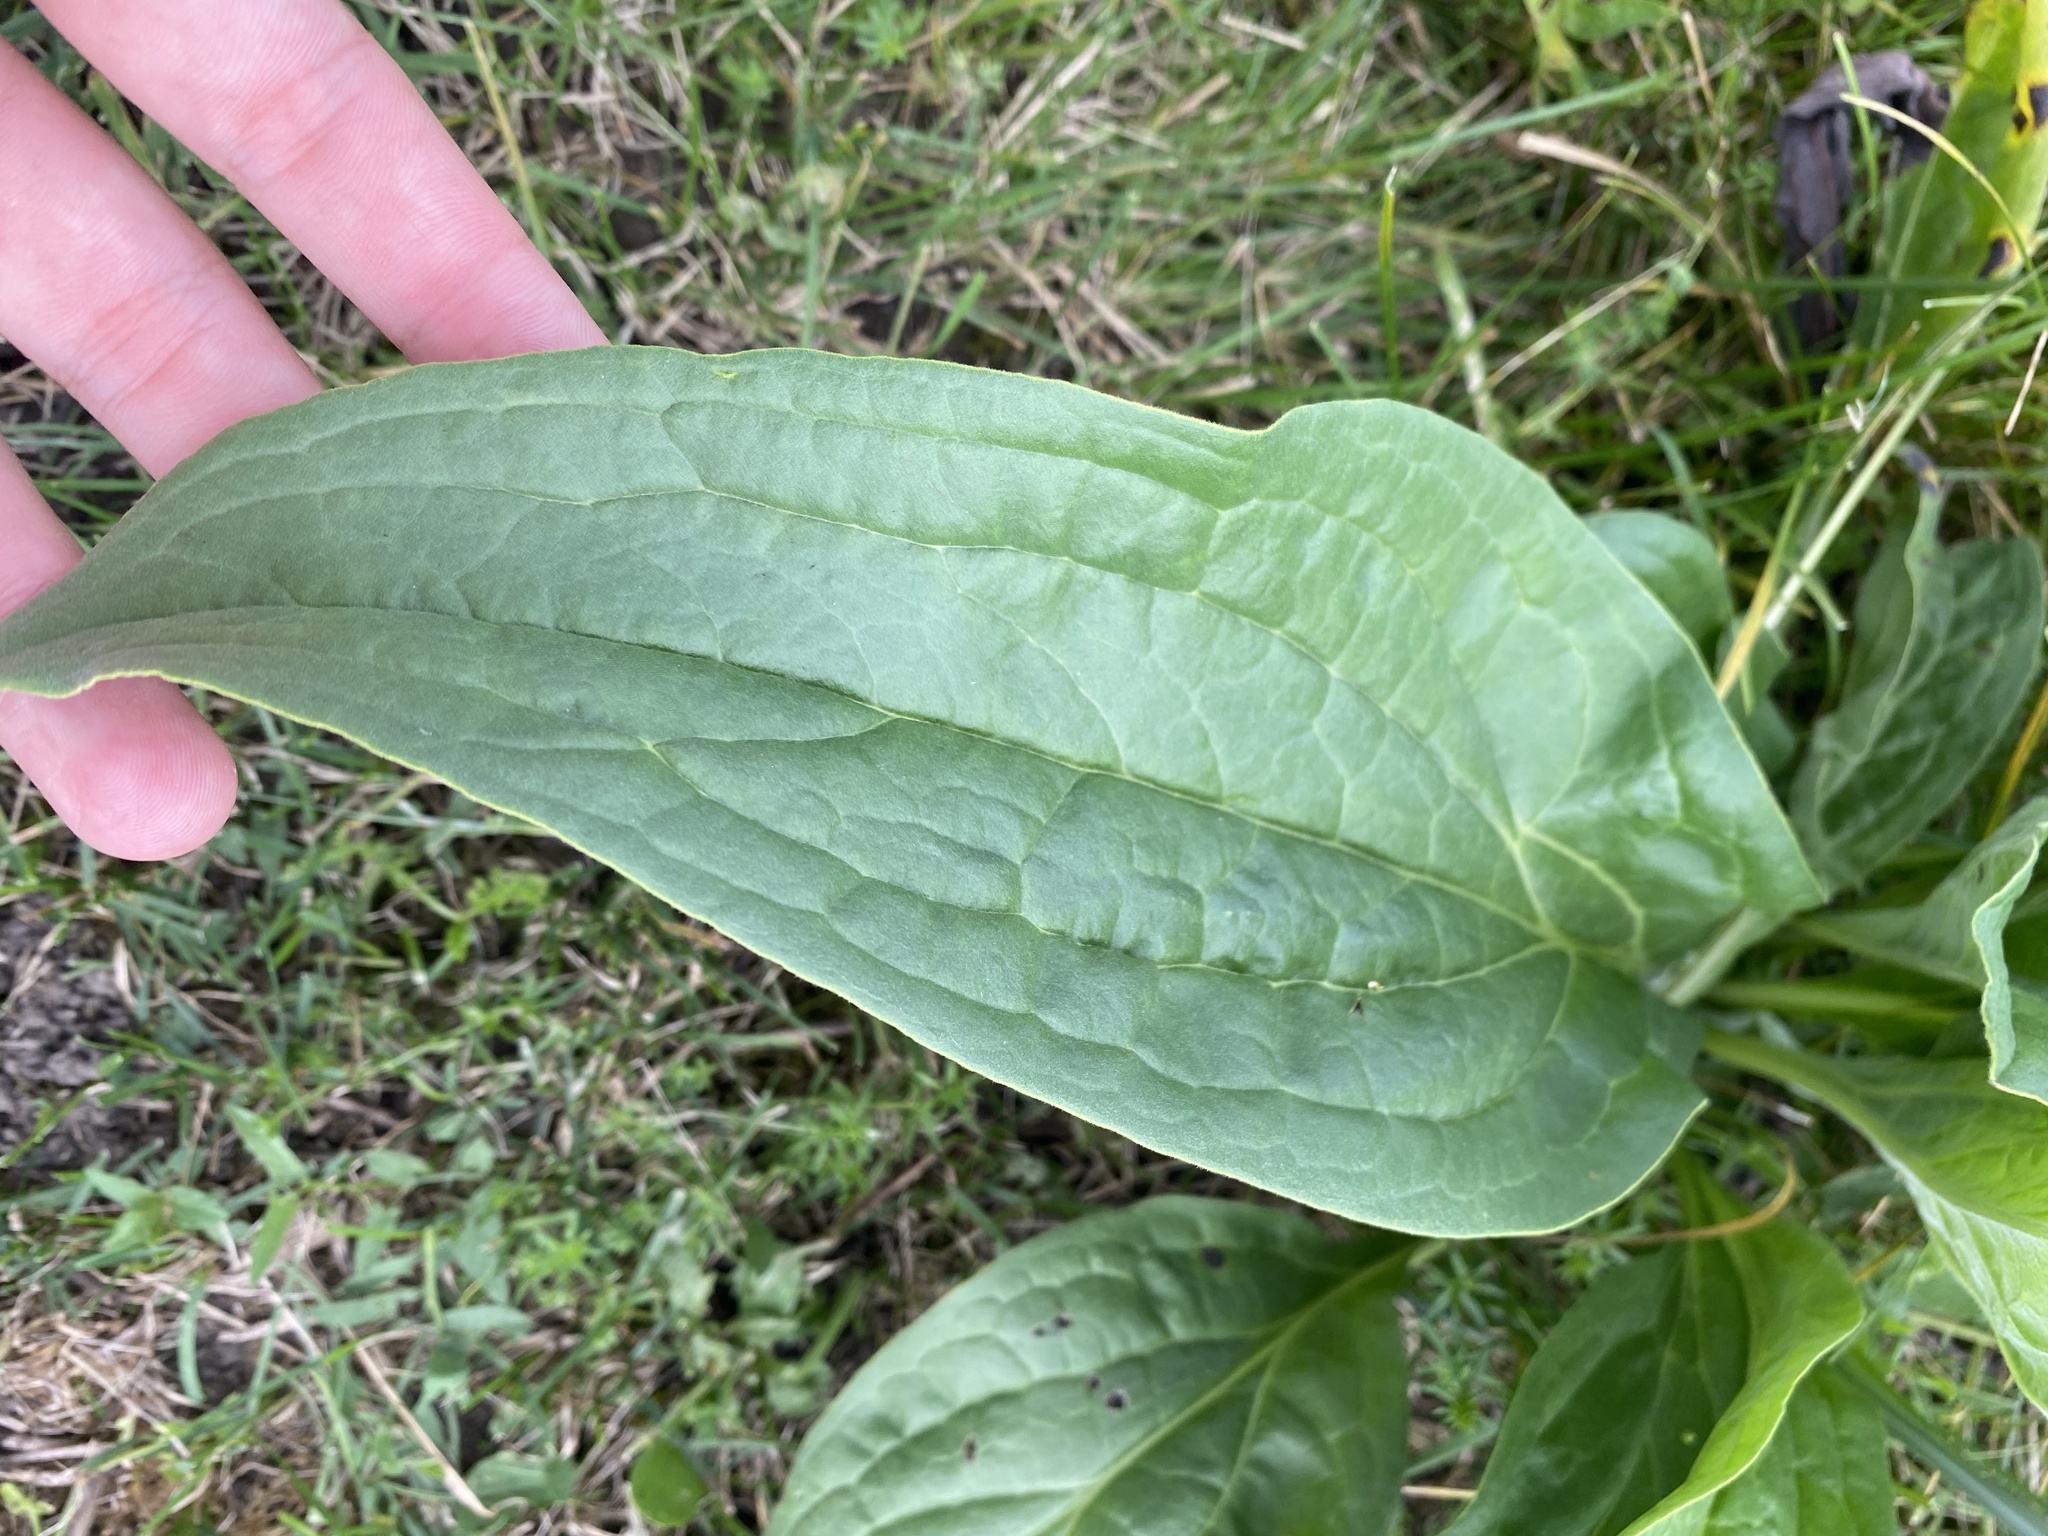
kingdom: Plantae
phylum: Tracheophyta
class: Magnoliopsida
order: Boraginales
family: Boraginaceae
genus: Cynoglossum
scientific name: Cynoglossum officinale
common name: Hound's-tongue
